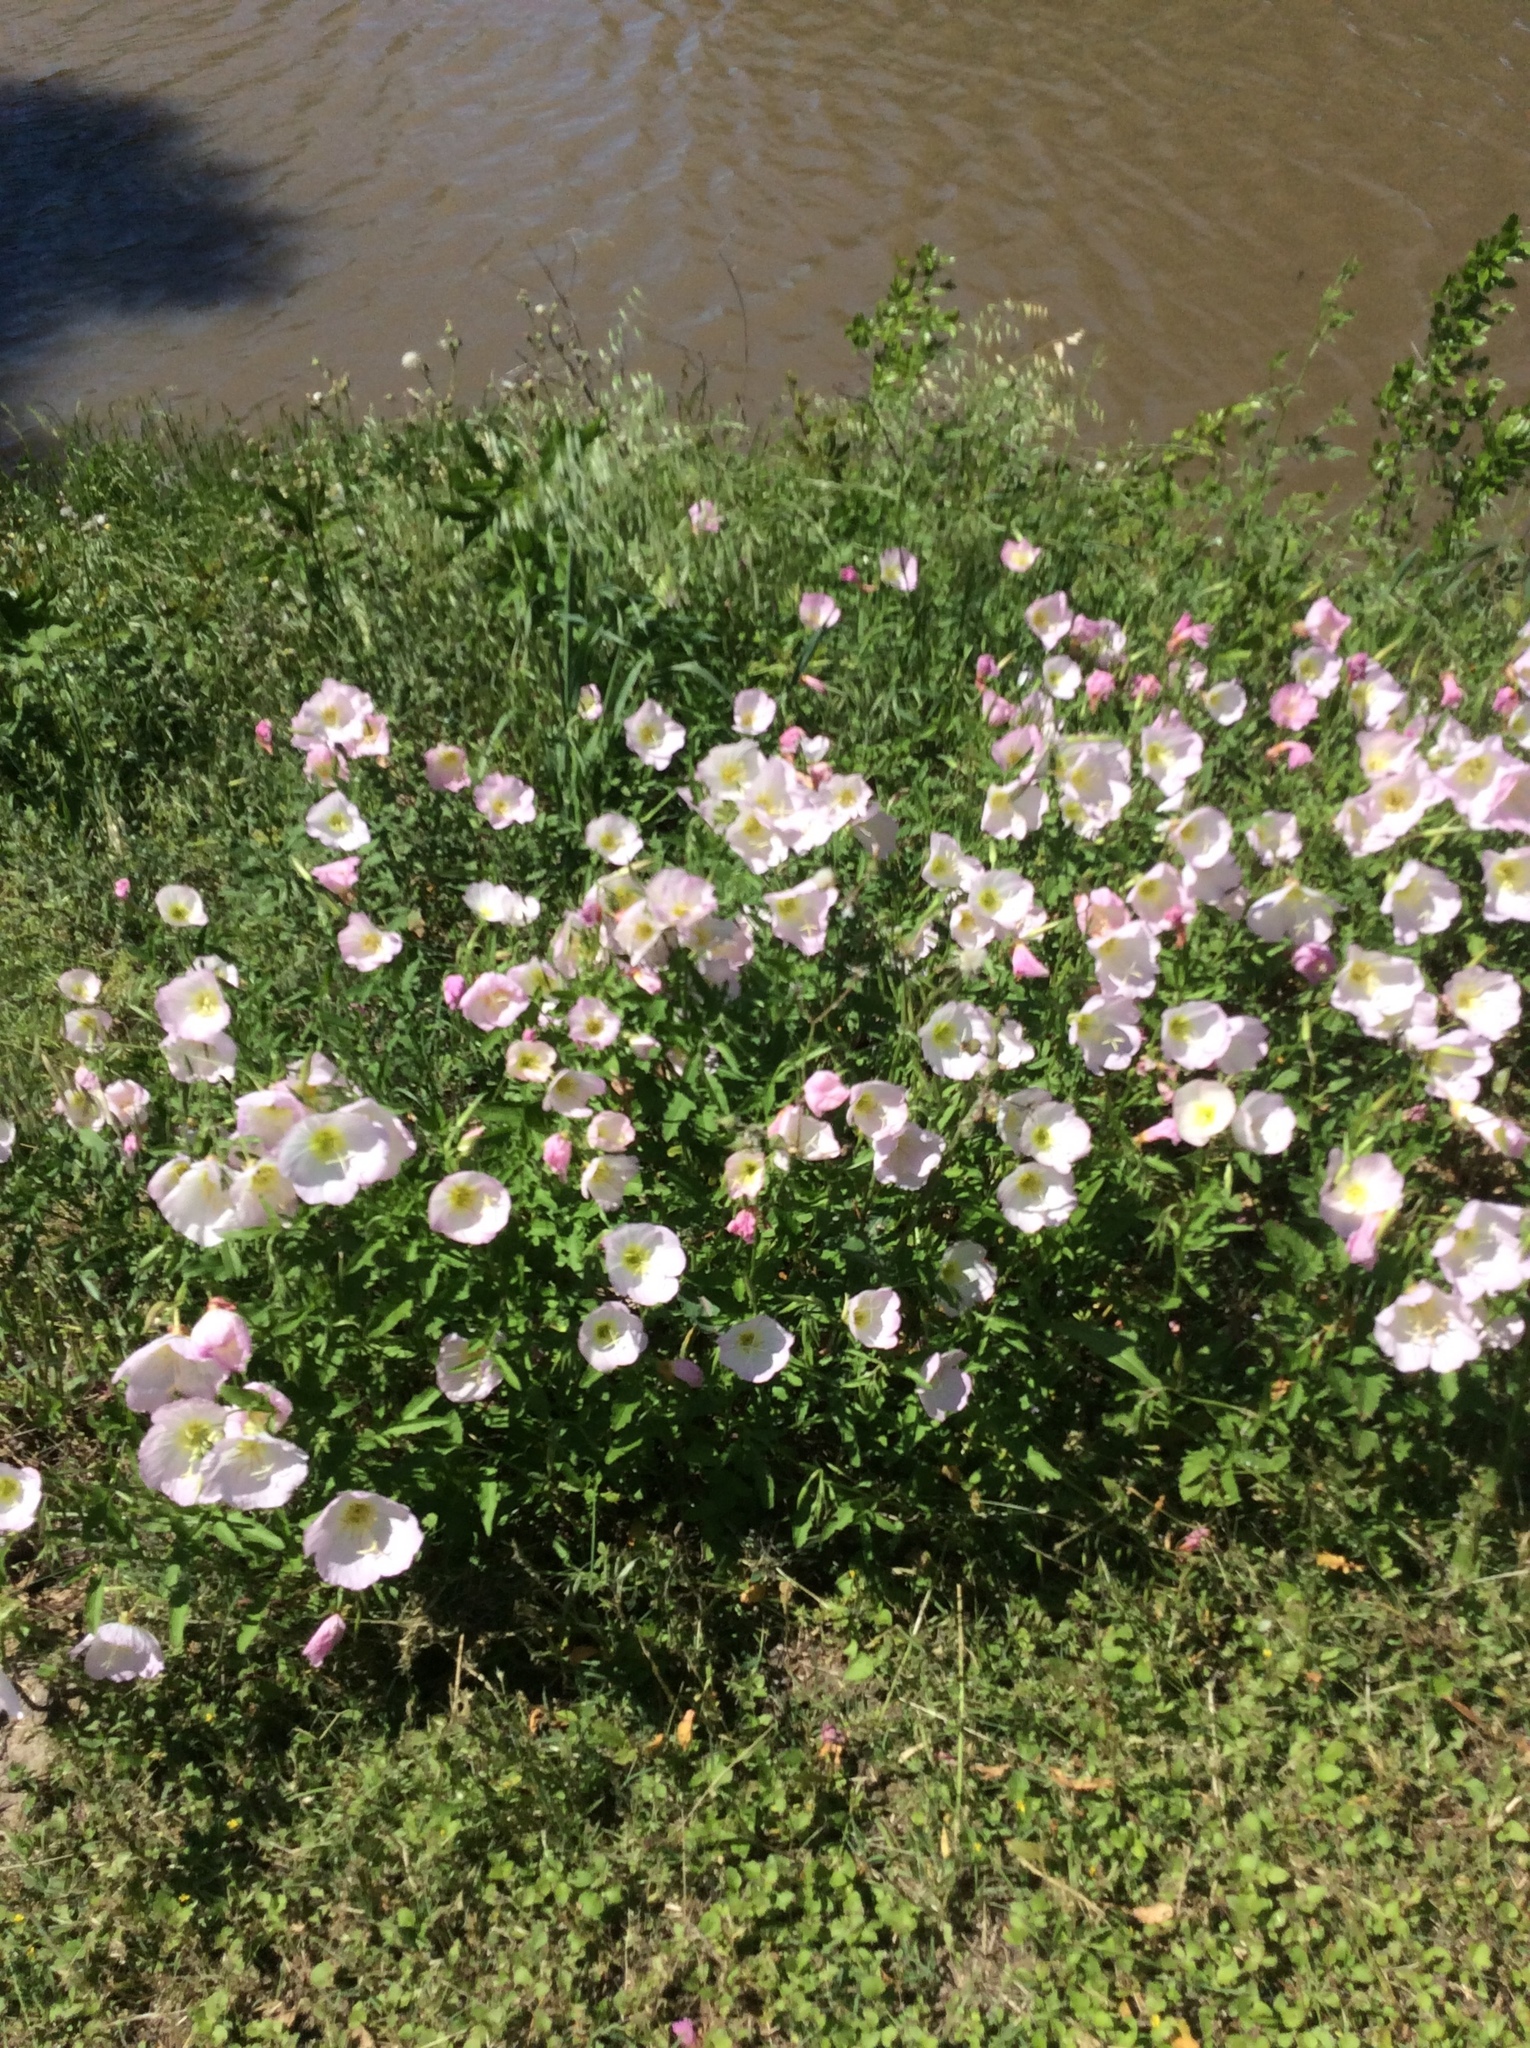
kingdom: Plantae
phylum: Tracheophyta
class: Magnoliopsida
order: Myrtales
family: Onagraceae
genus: Oenothera
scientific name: Oenothera speciosa
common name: White evening-primrose
